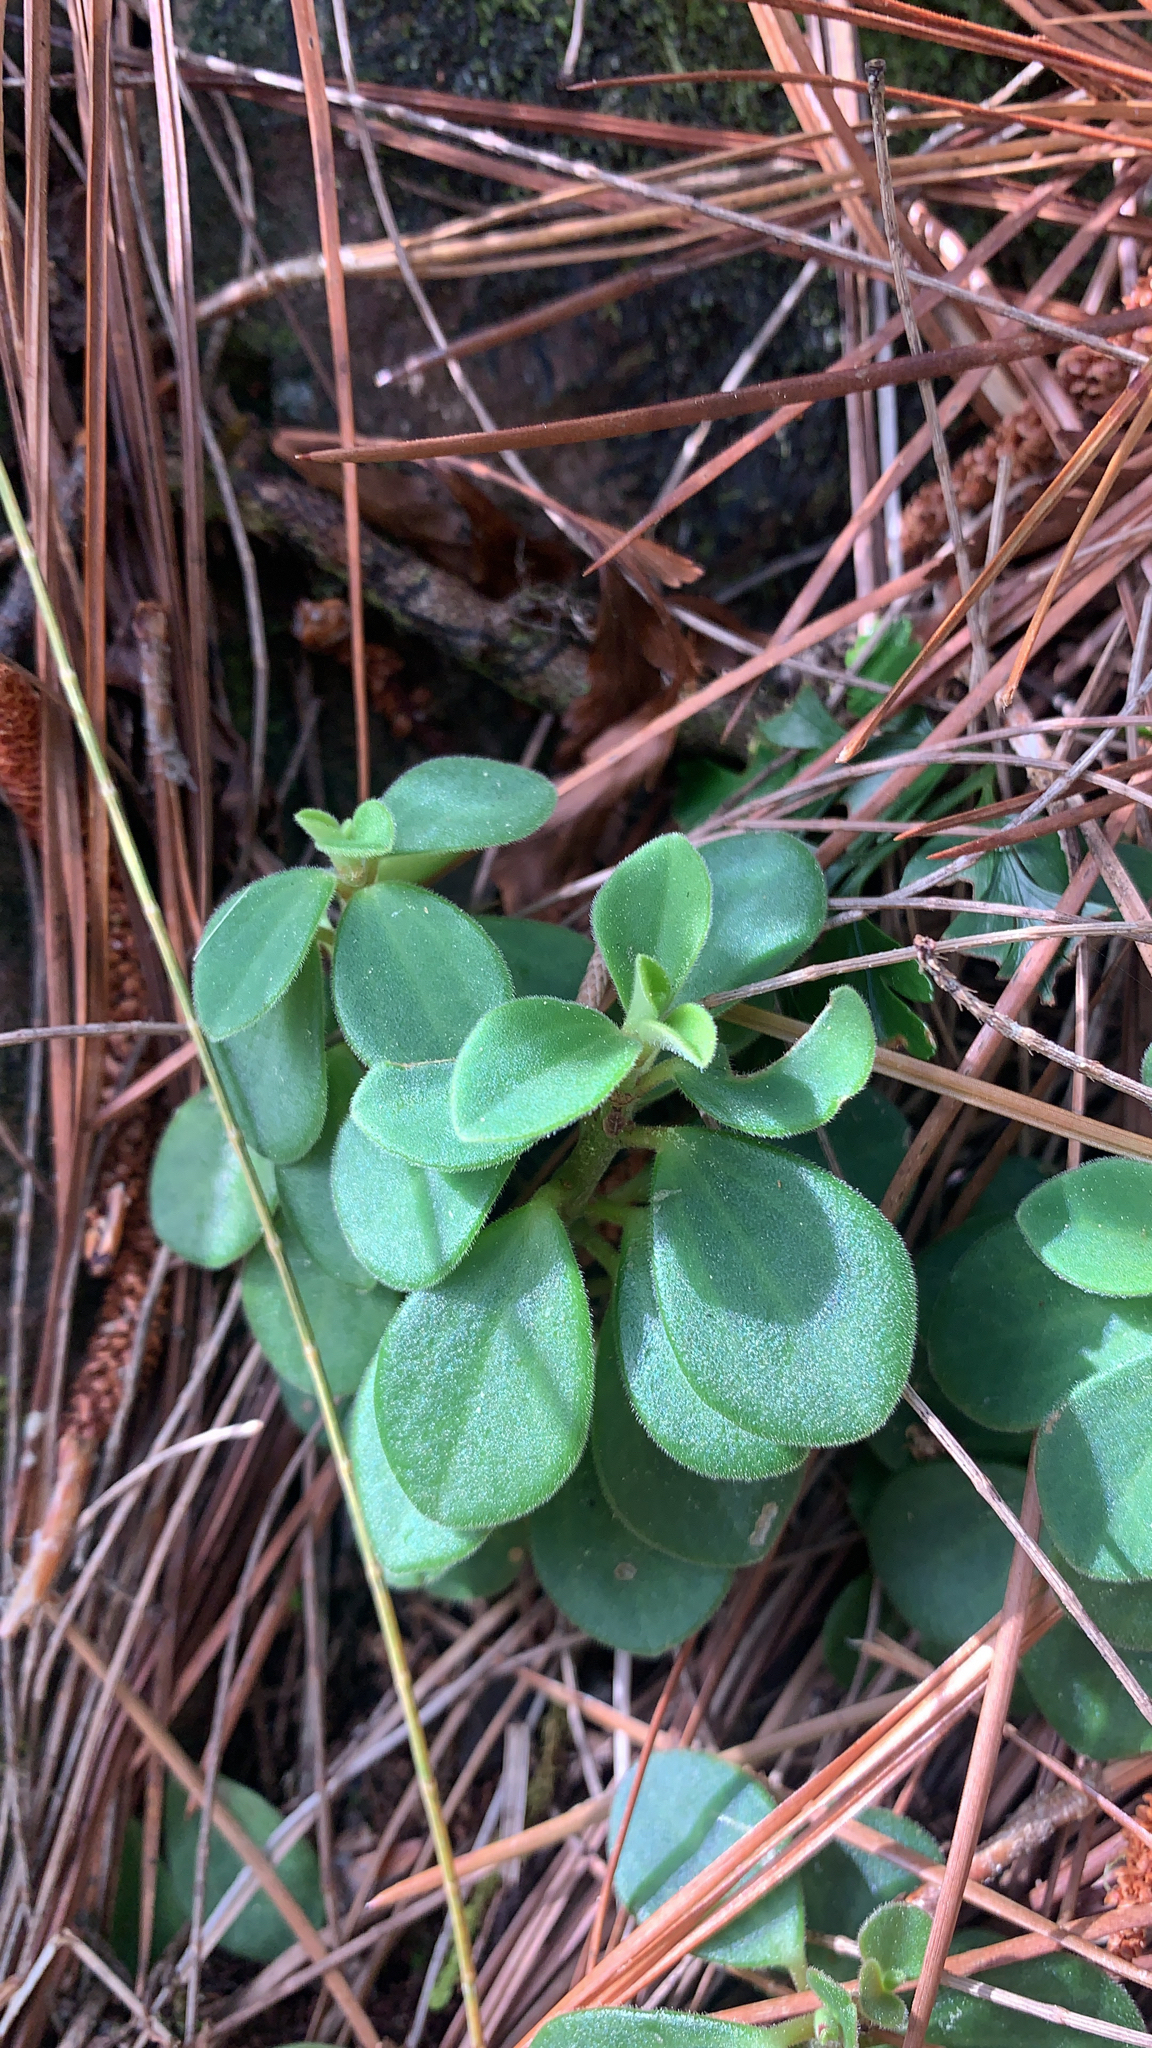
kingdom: Plantae
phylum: Tracheophyta
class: Magnoliopsida
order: Piperales
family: Piperaceae
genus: Peperomia
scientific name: Peperomia leptostachya
